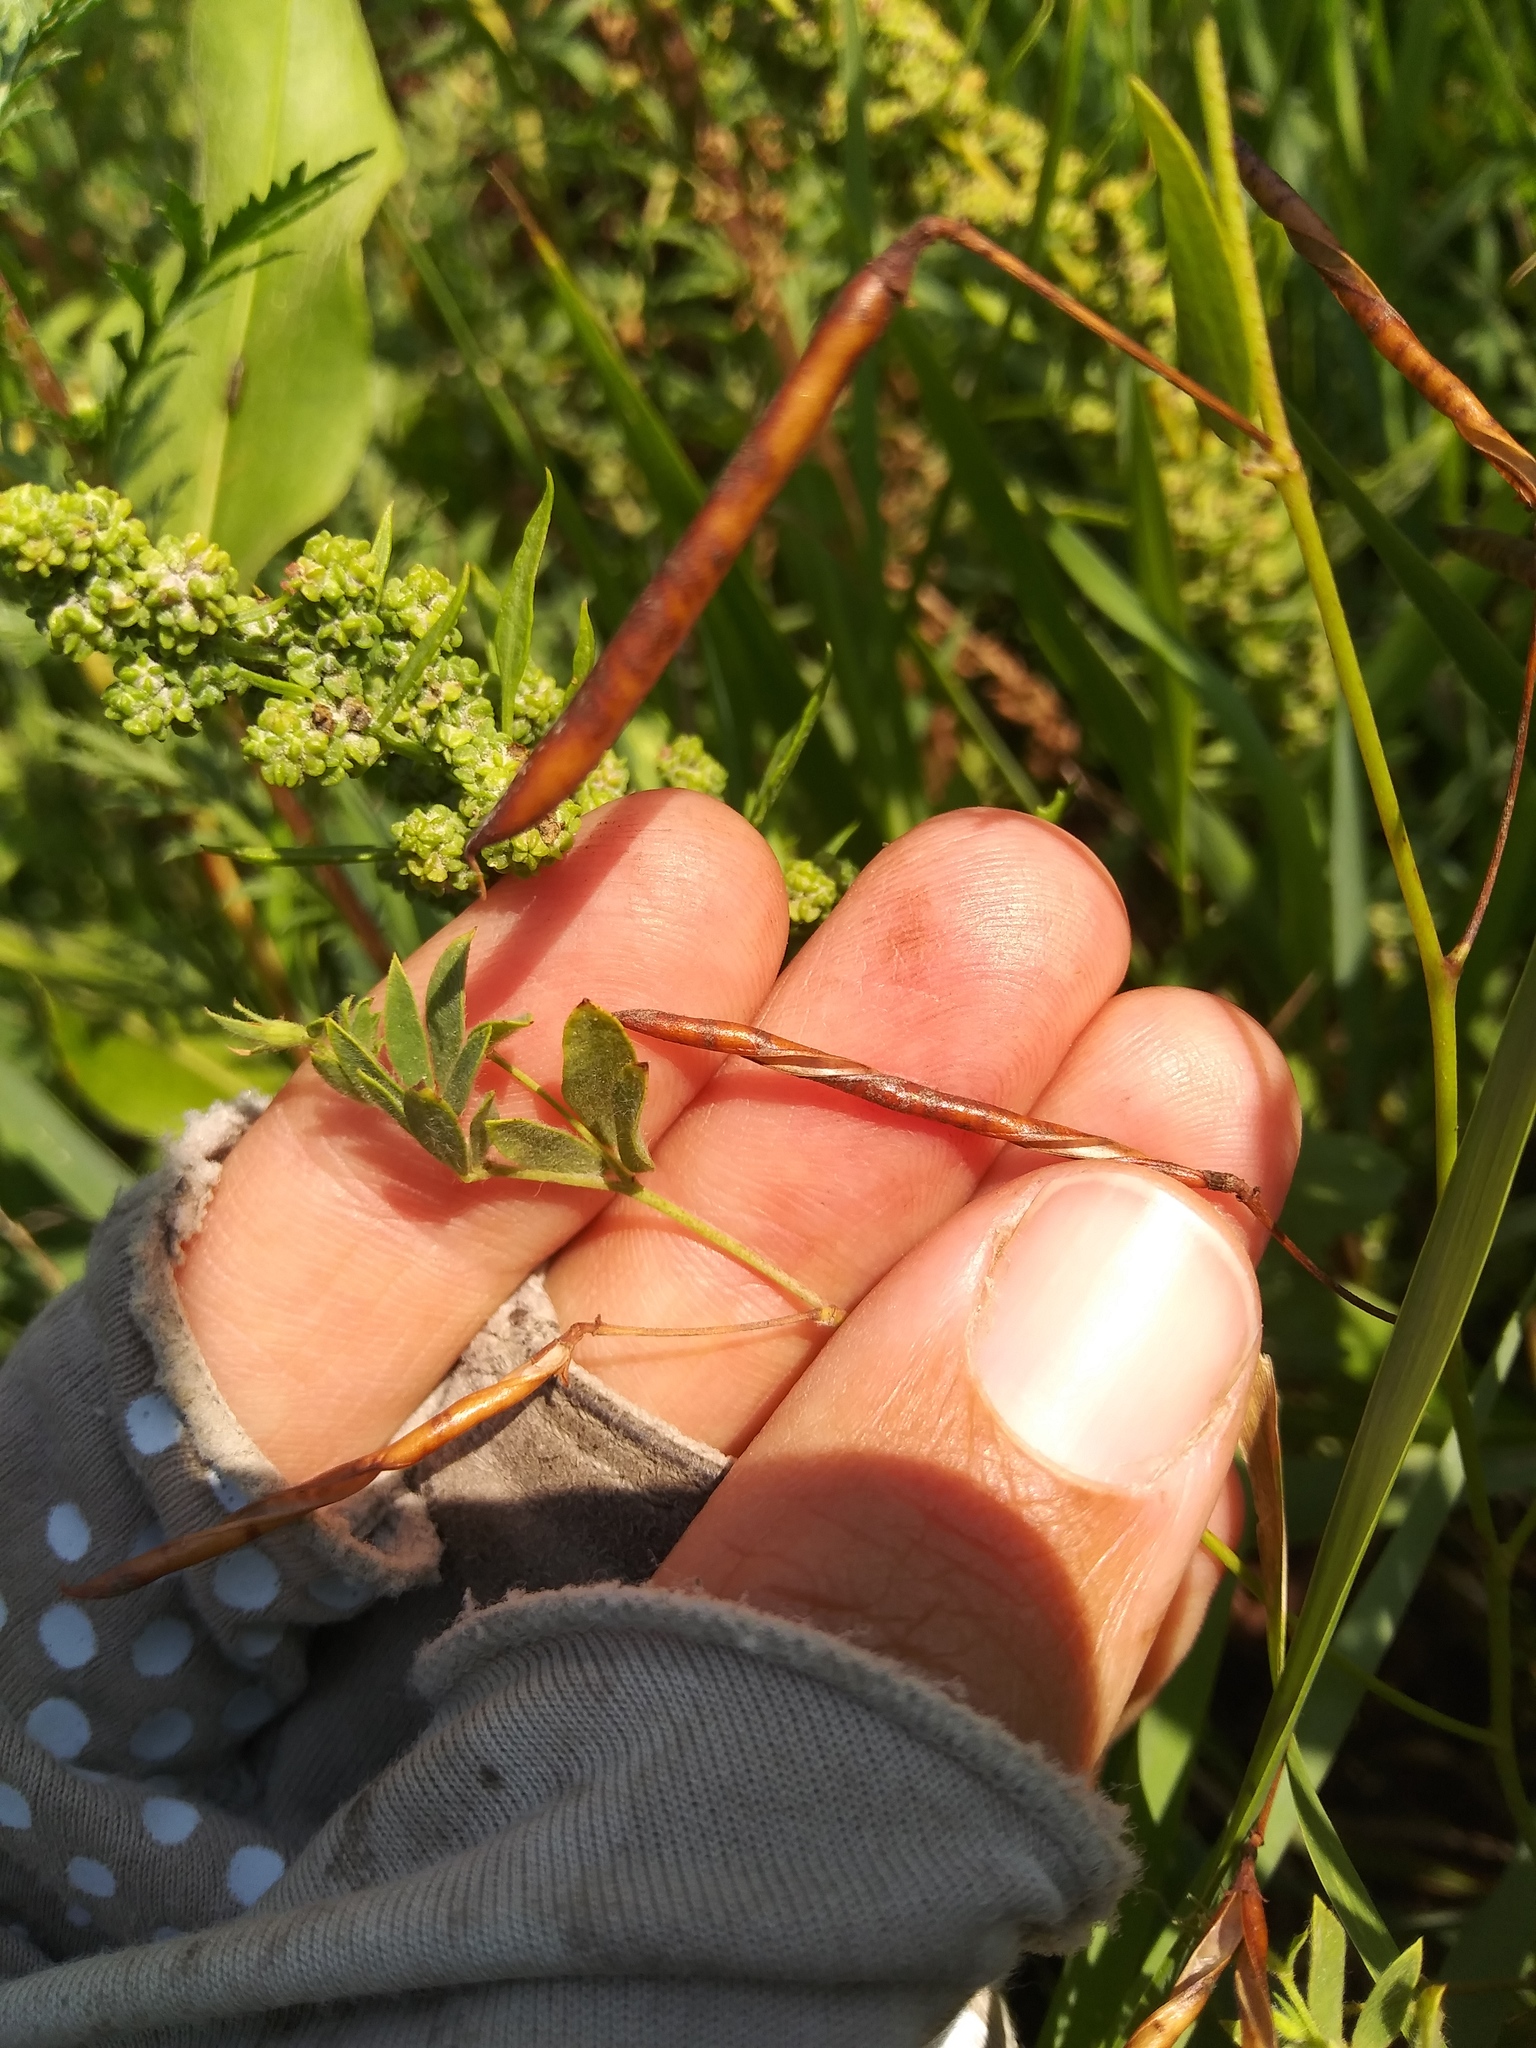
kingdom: Plantae
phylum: Tracheophyta
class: Magnoliopsida
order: Fabales
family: Fabaceae
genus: Acmispon
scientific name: Acmispon americanus
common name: American bird's-foot trefoil
